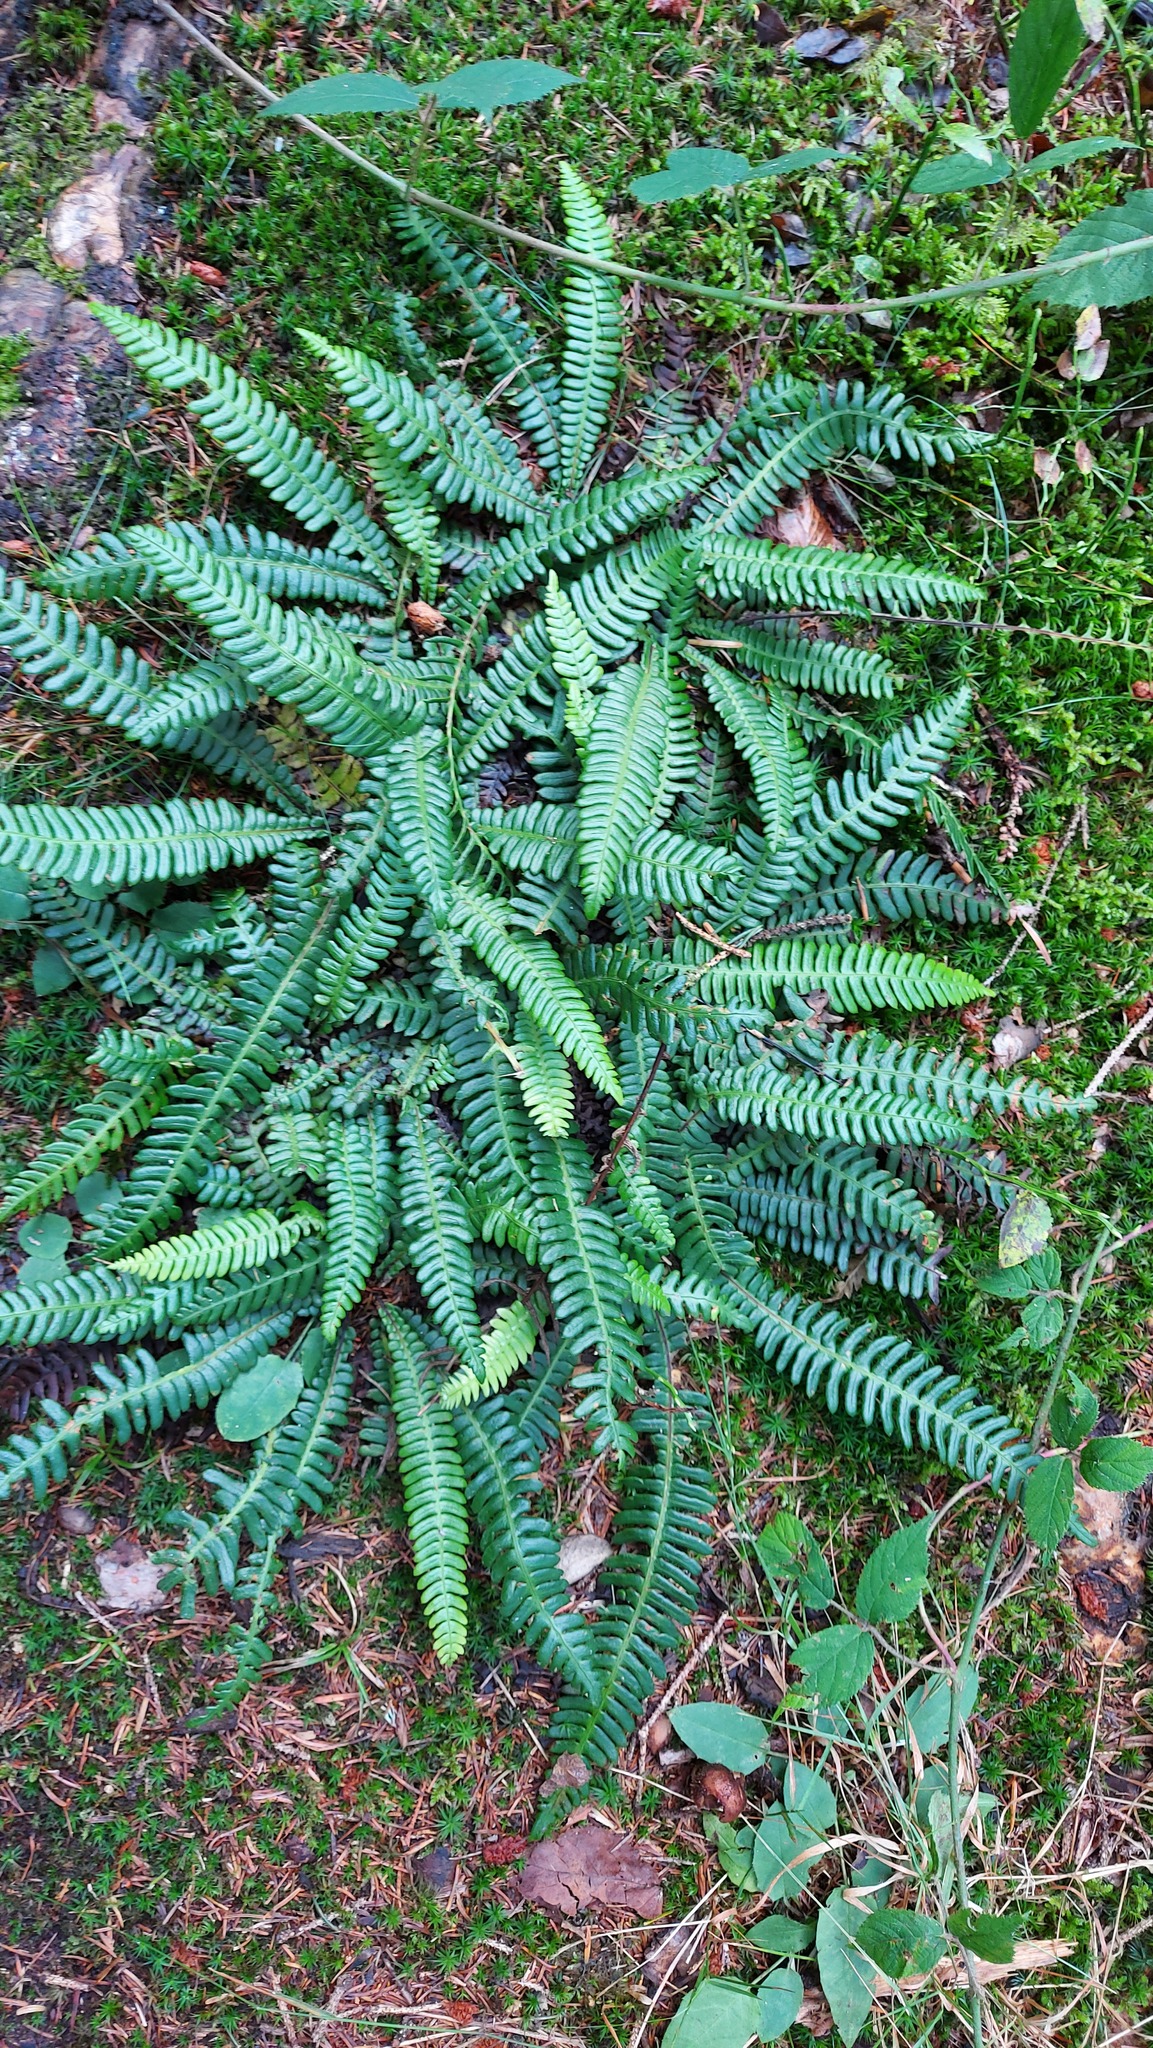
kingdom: Plantae
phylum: Tracheophyta
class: Polypodiopsida
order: Polypodiales
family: Blechnaceae
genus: Struthiopteris
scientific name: Struthiopteris spicant
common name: Deer fern
